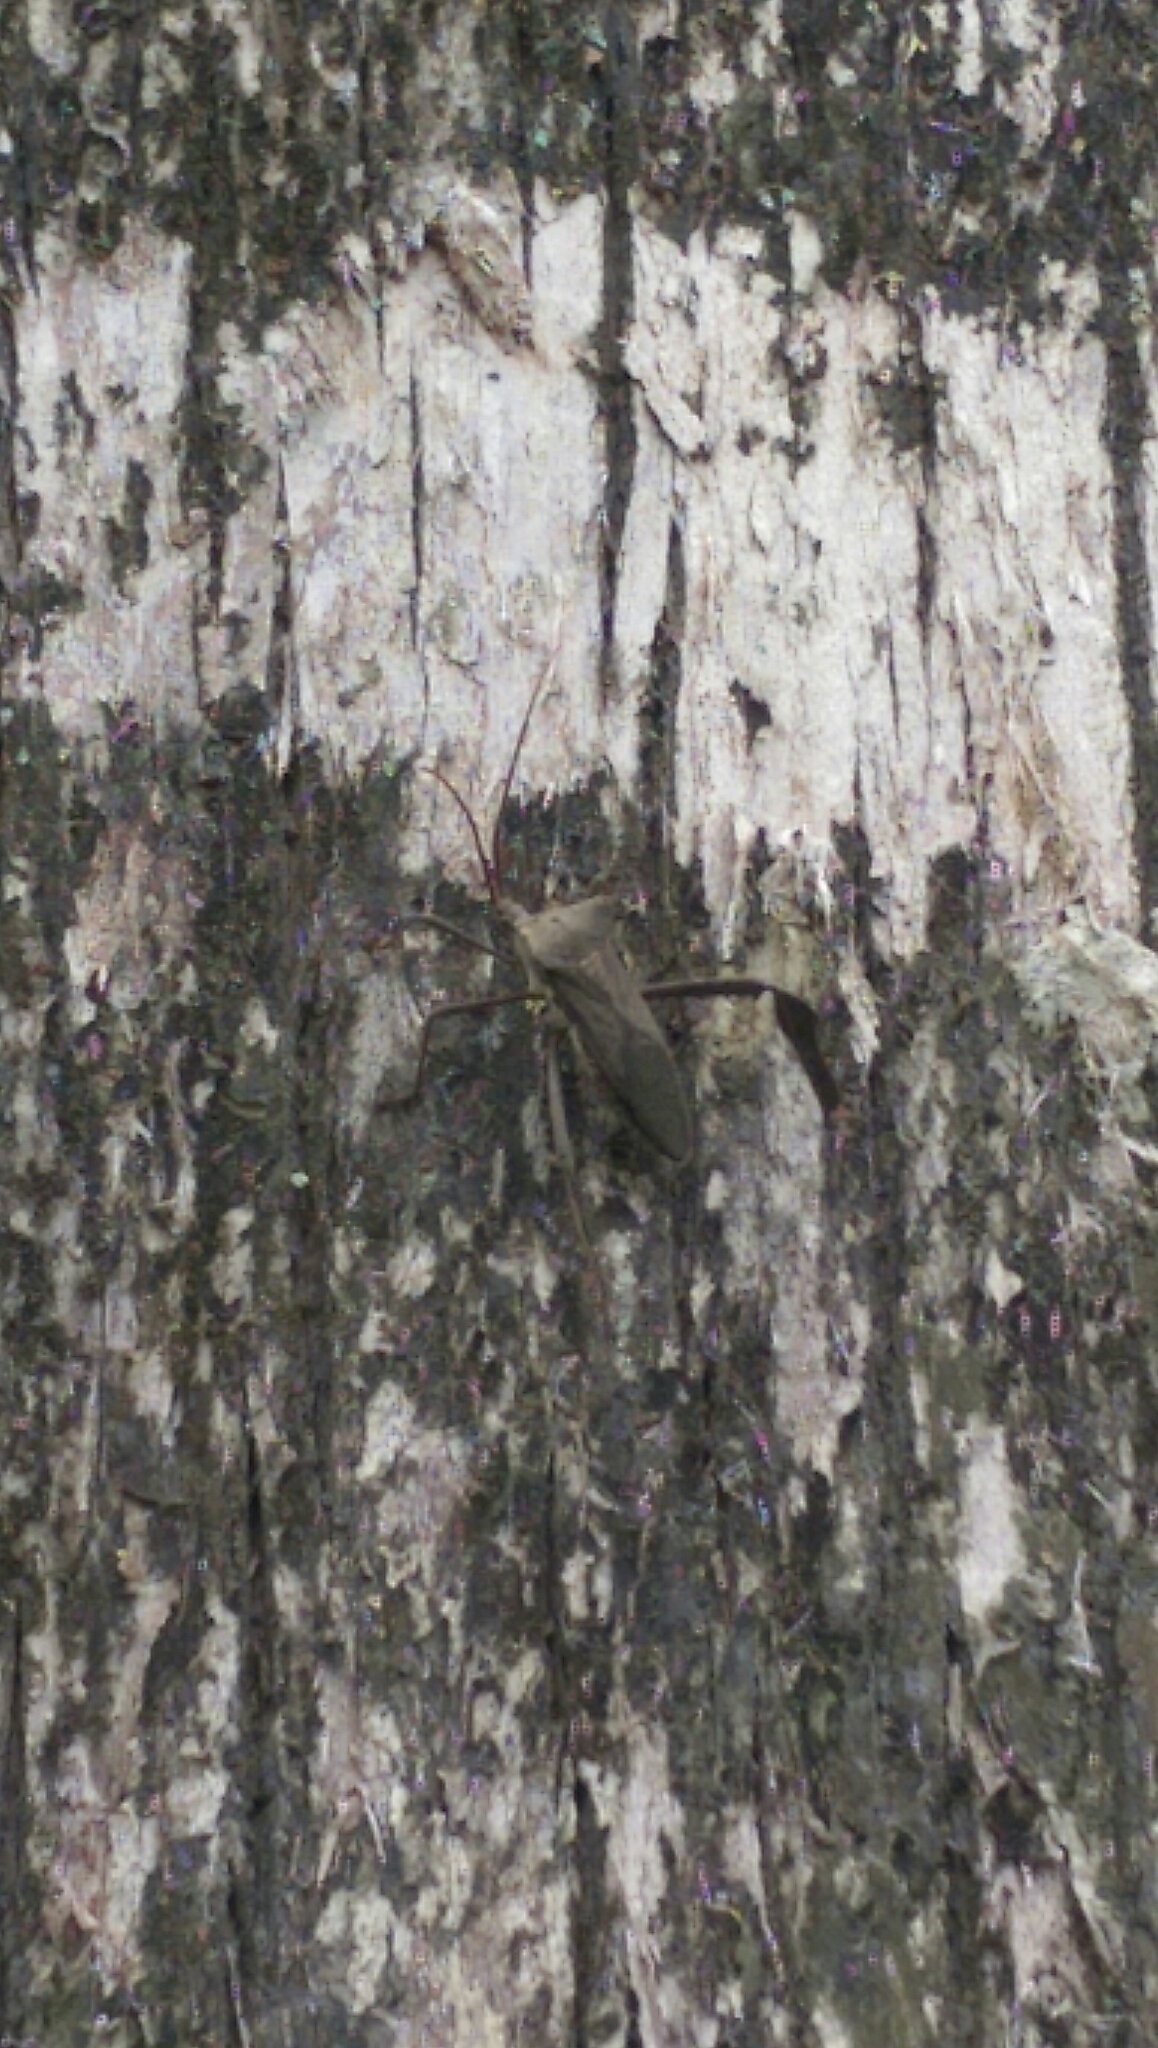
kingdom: Animalia
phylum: Arthropoda
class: Insecta
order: Hemiptera
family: Coreidae
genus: Acanthocephala
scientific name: Acanthocephala declivis
